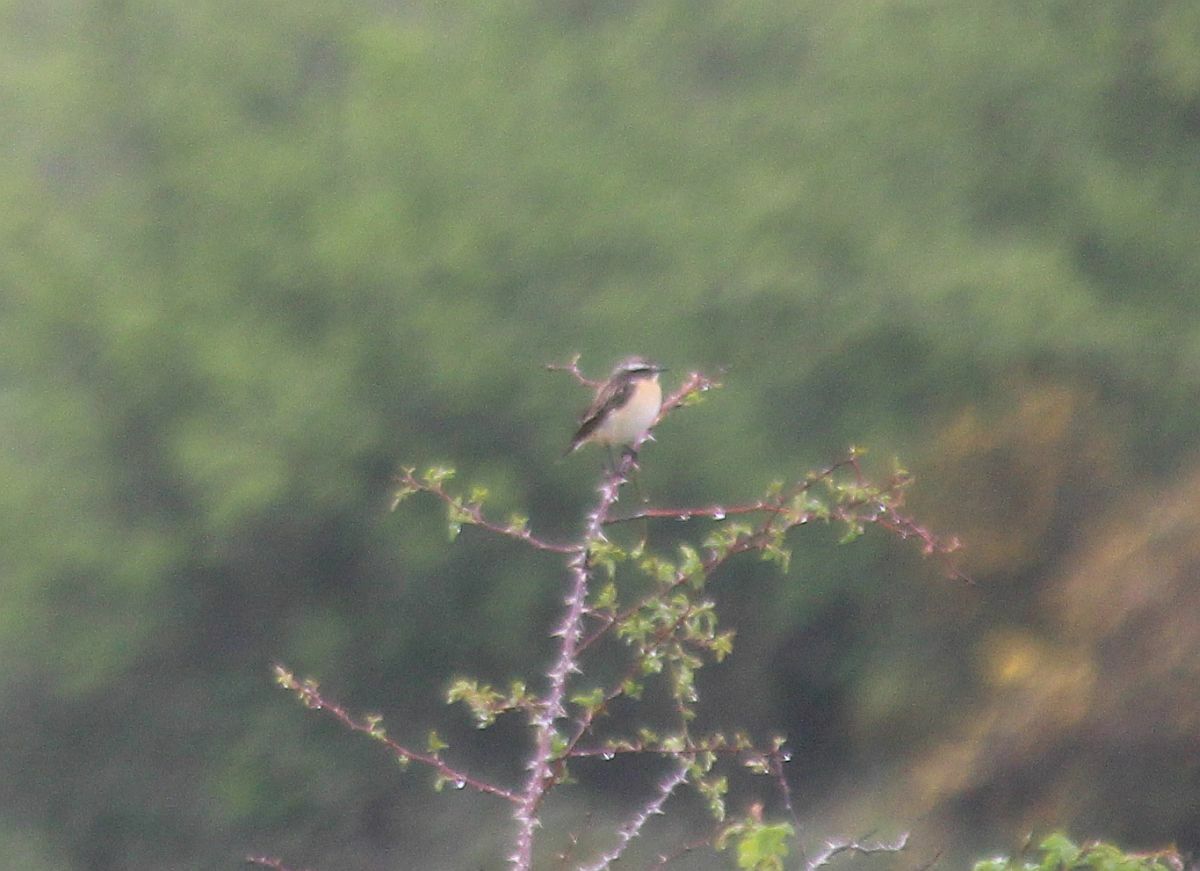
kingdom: Animalia
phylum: Chordata
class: Aves
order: Passeriformes
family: Muscicapidae
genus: Saxicola
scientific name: Saxicola rubetra
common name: Whinchat
